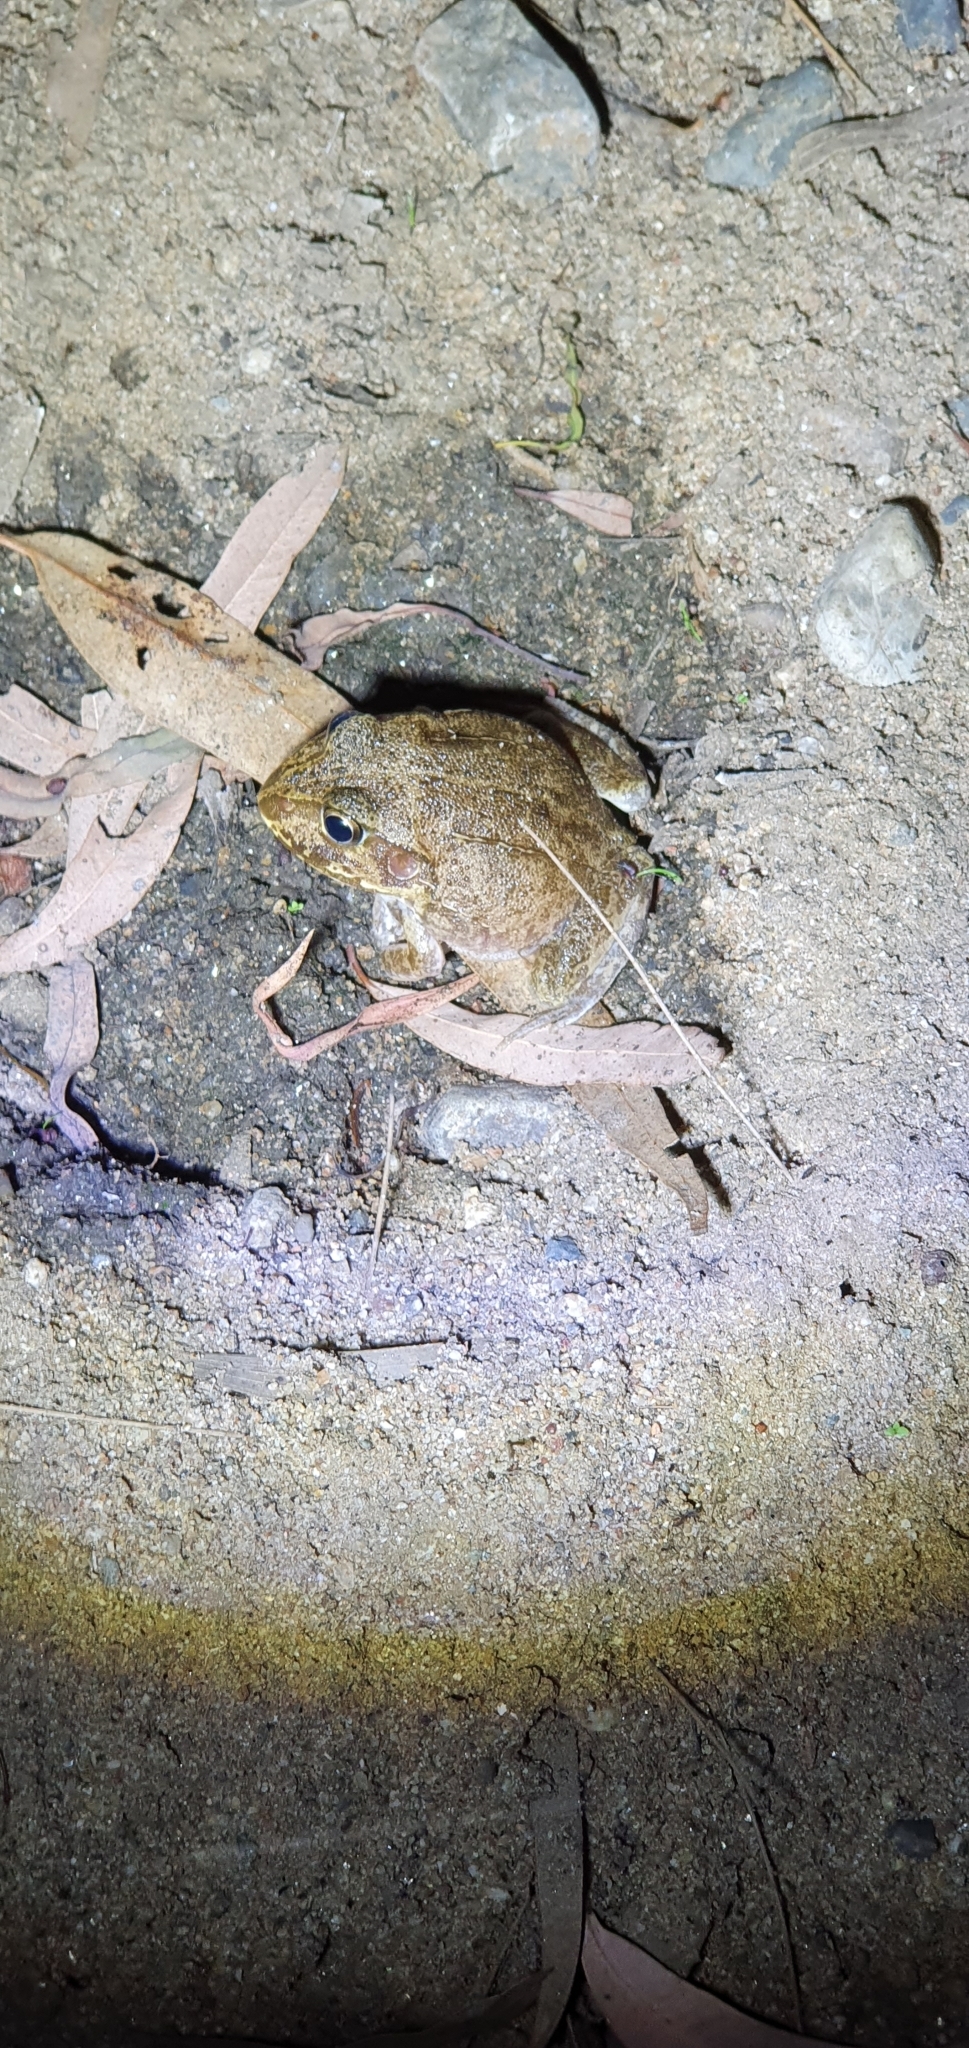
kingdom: Animalia
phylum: Chordata
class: Amphibia
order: Anura
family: Pelodryadidae
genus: Ranoidea
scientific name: Ranoidea novaehollandiae
